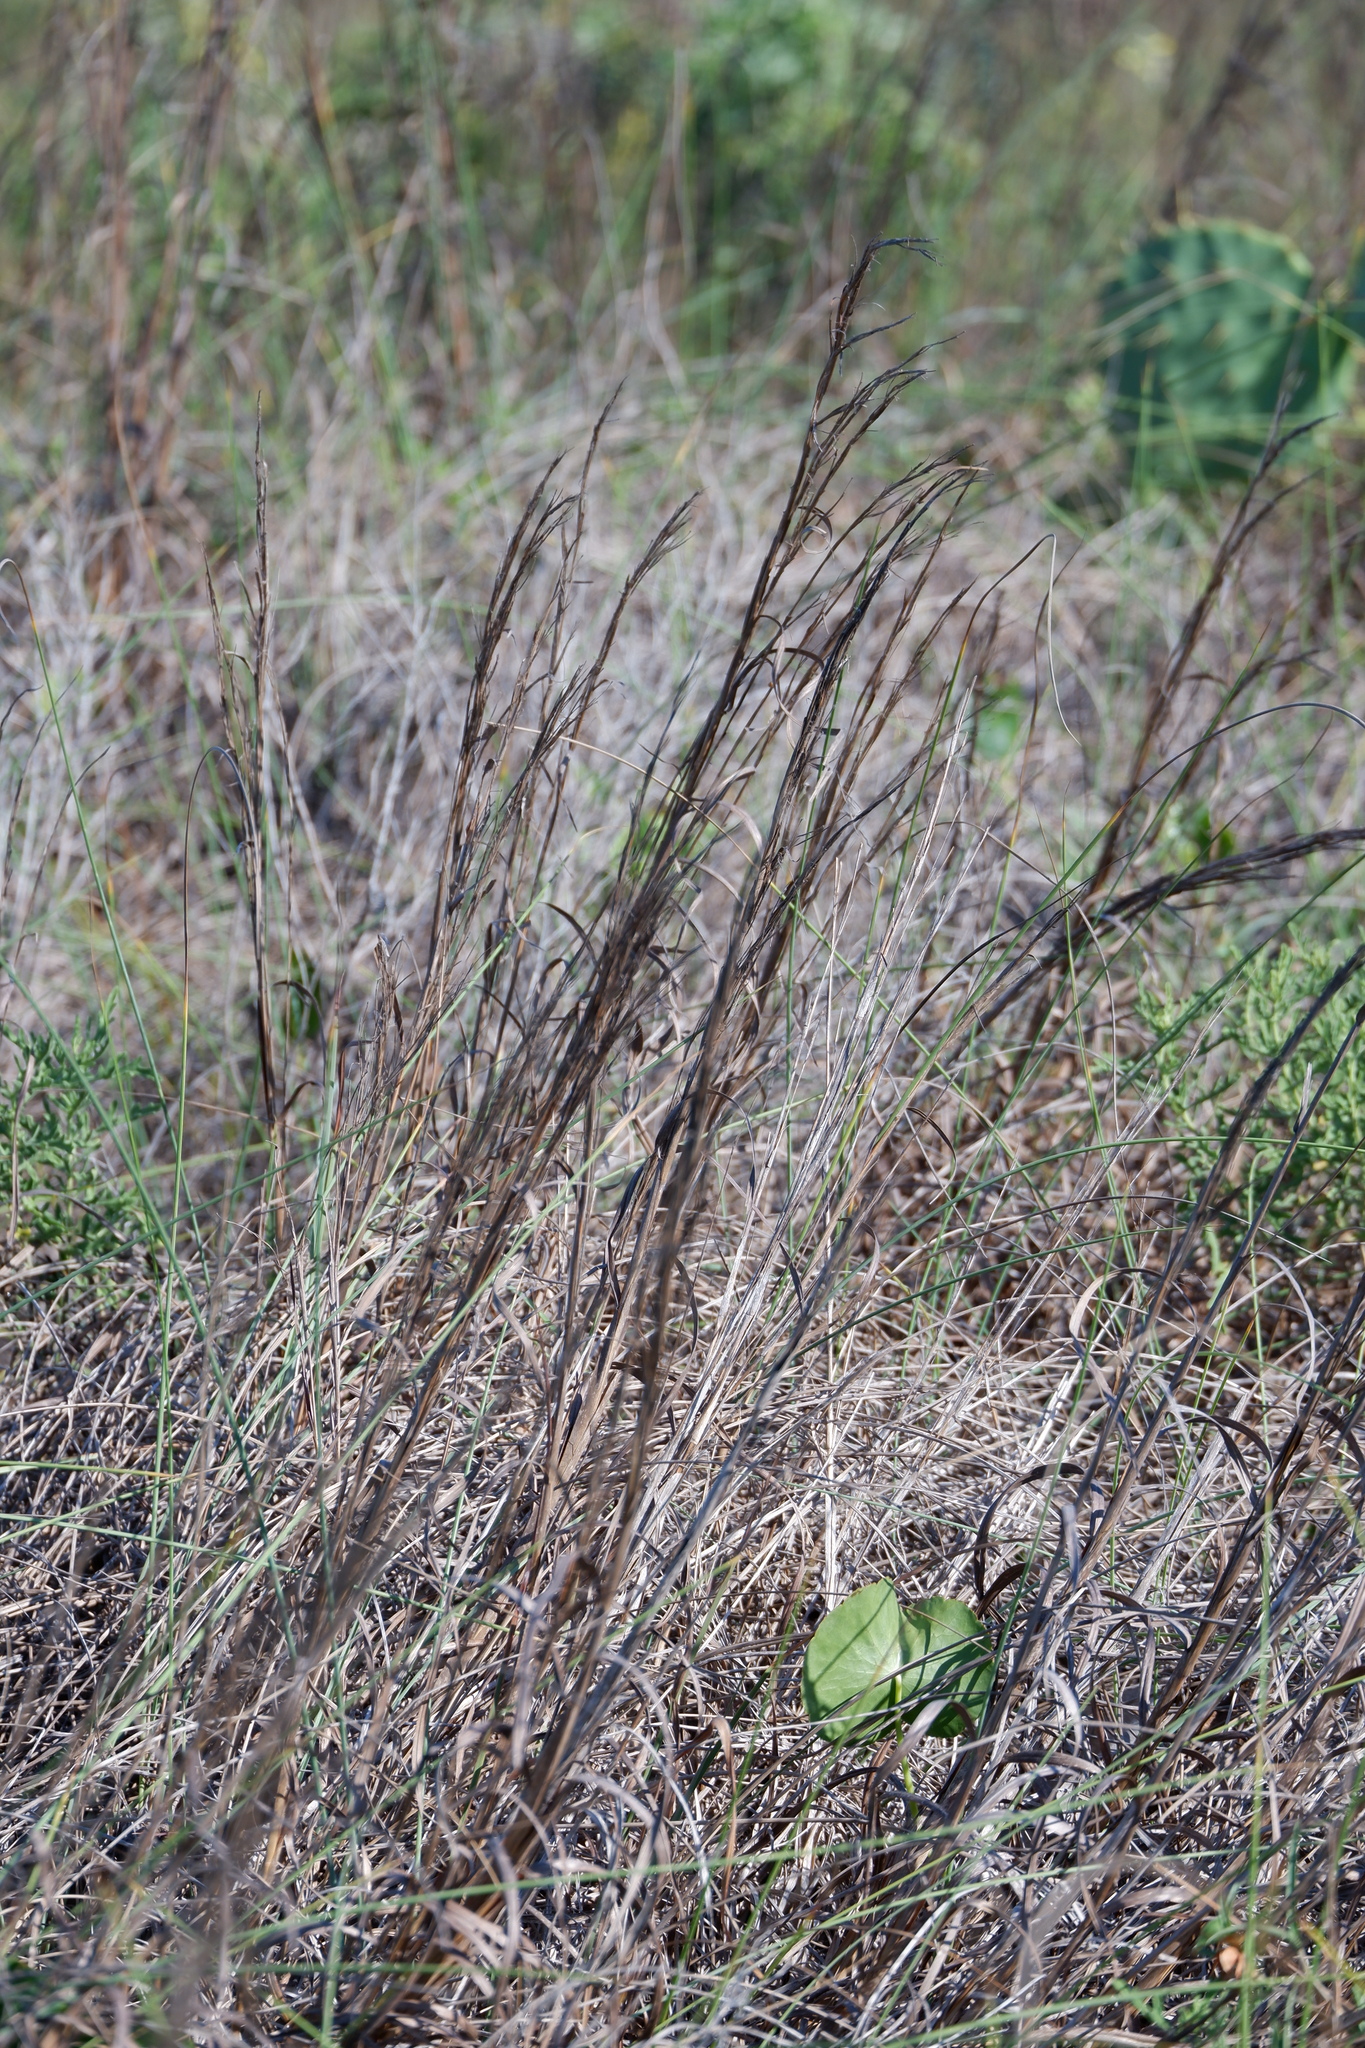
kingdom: Plantae
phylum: Tracheophyta
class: Liliopsida
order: Poales
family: Poaceae
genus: Schizachyrium
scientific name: Schizachyrium scoparium
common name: Little bluestem
